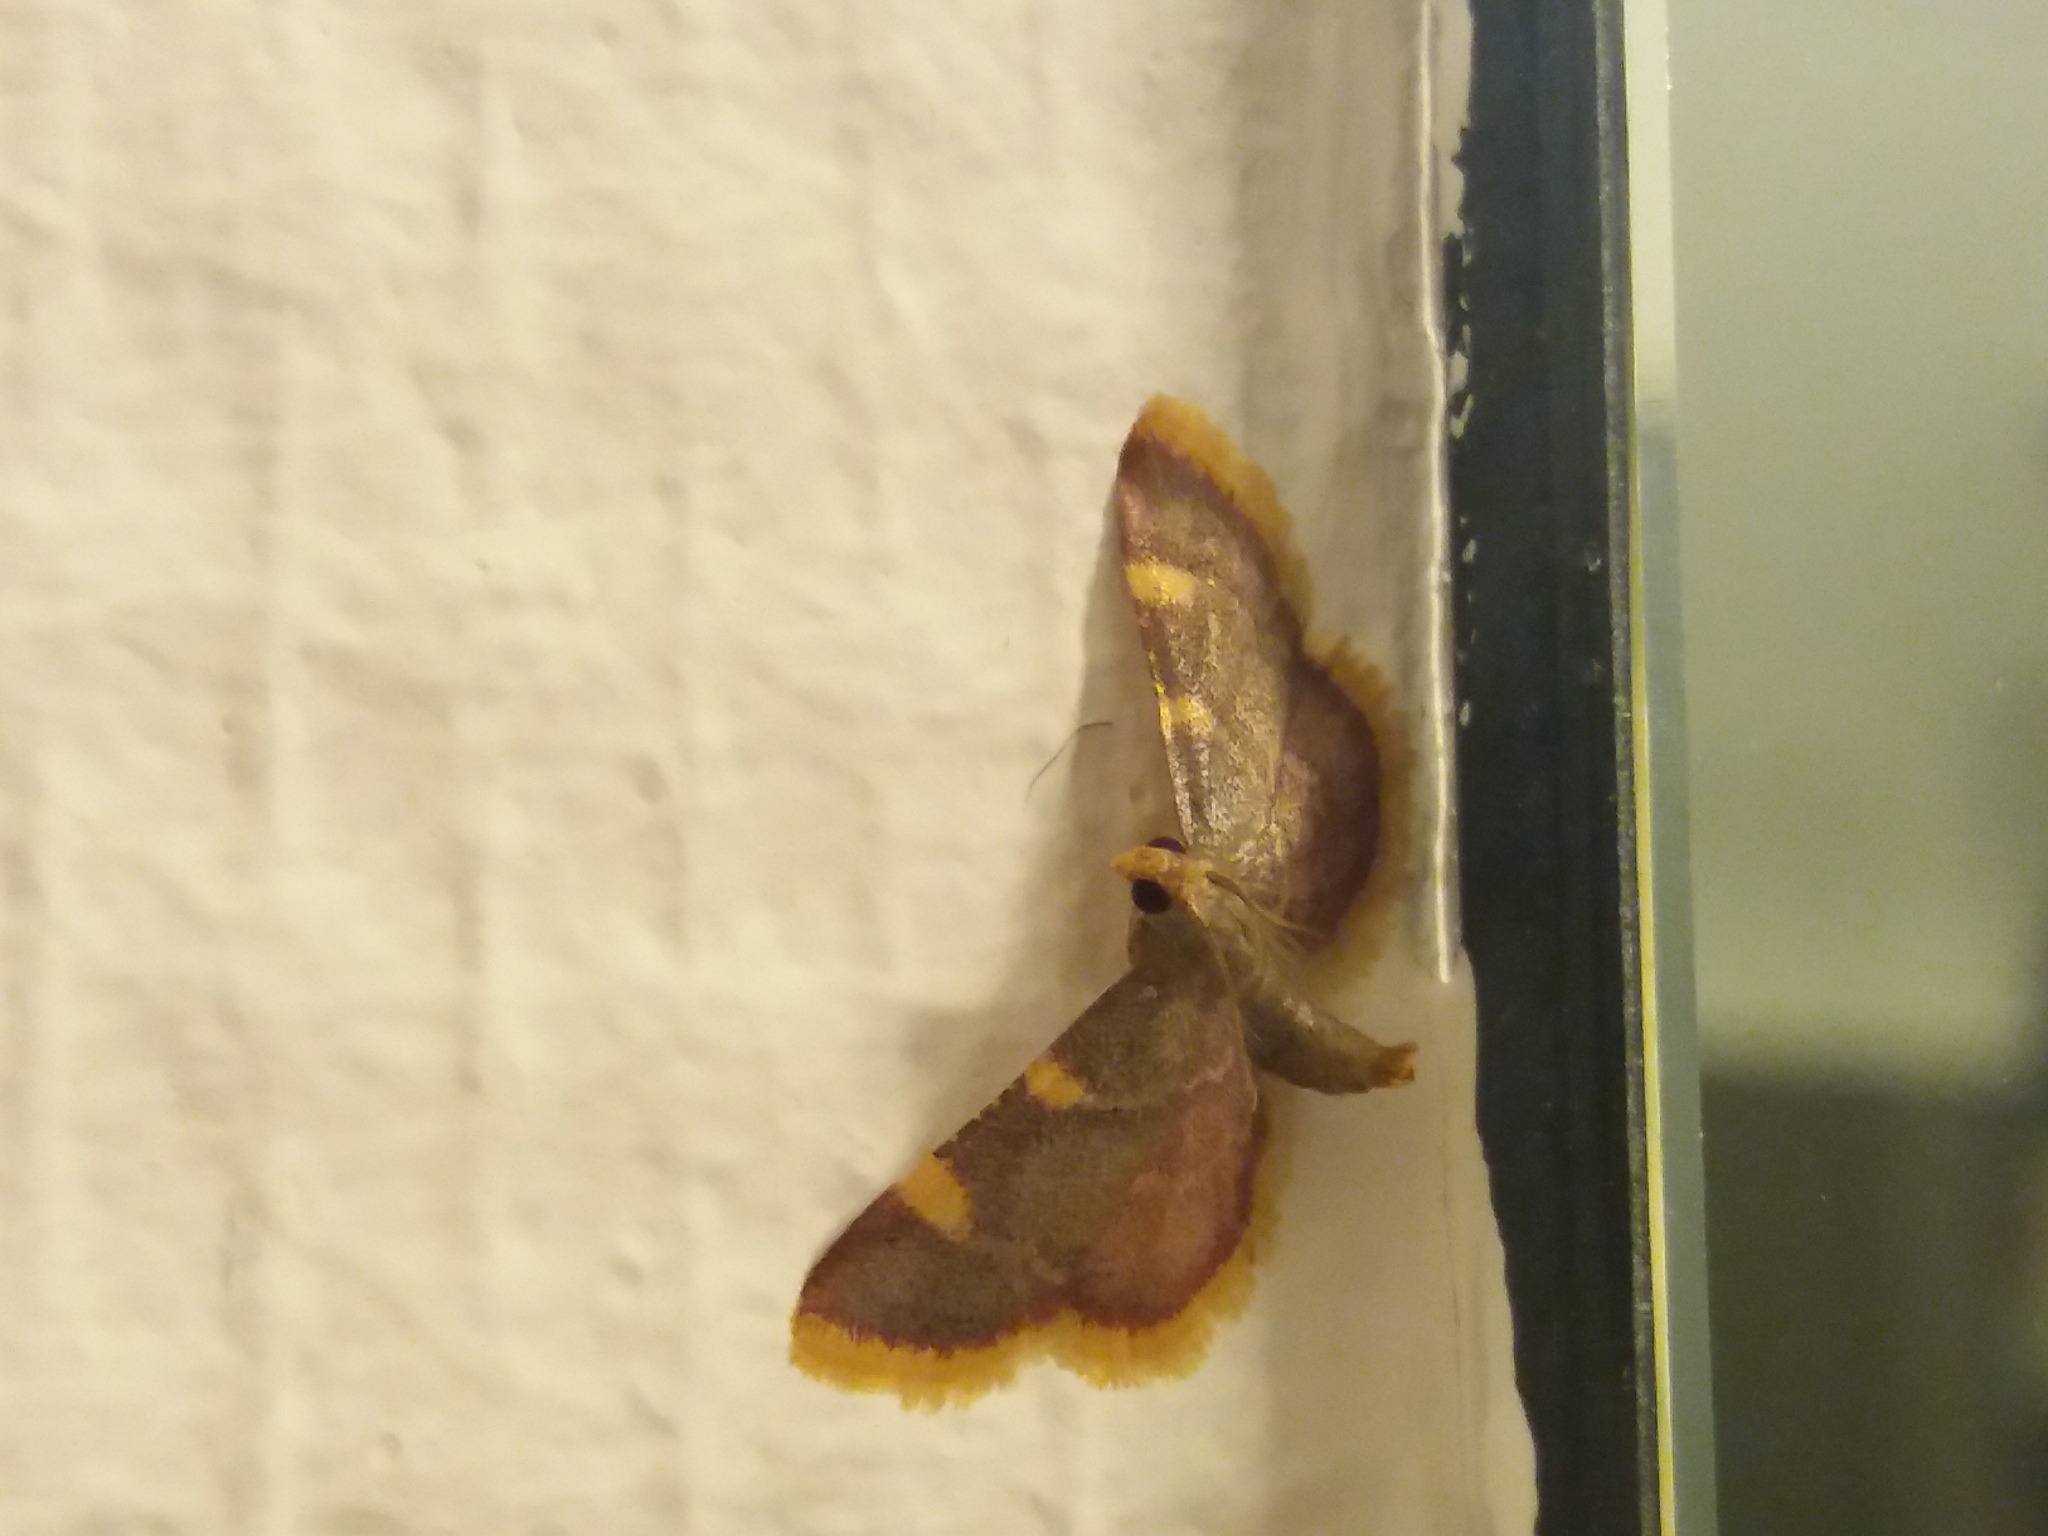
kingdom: Animalia
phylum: Arthropoda
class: Insecta
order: Lepidoptera
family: Pyralidae
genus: Hypsopygia
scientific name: Hypsopygia costalis
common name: Gold triangle
